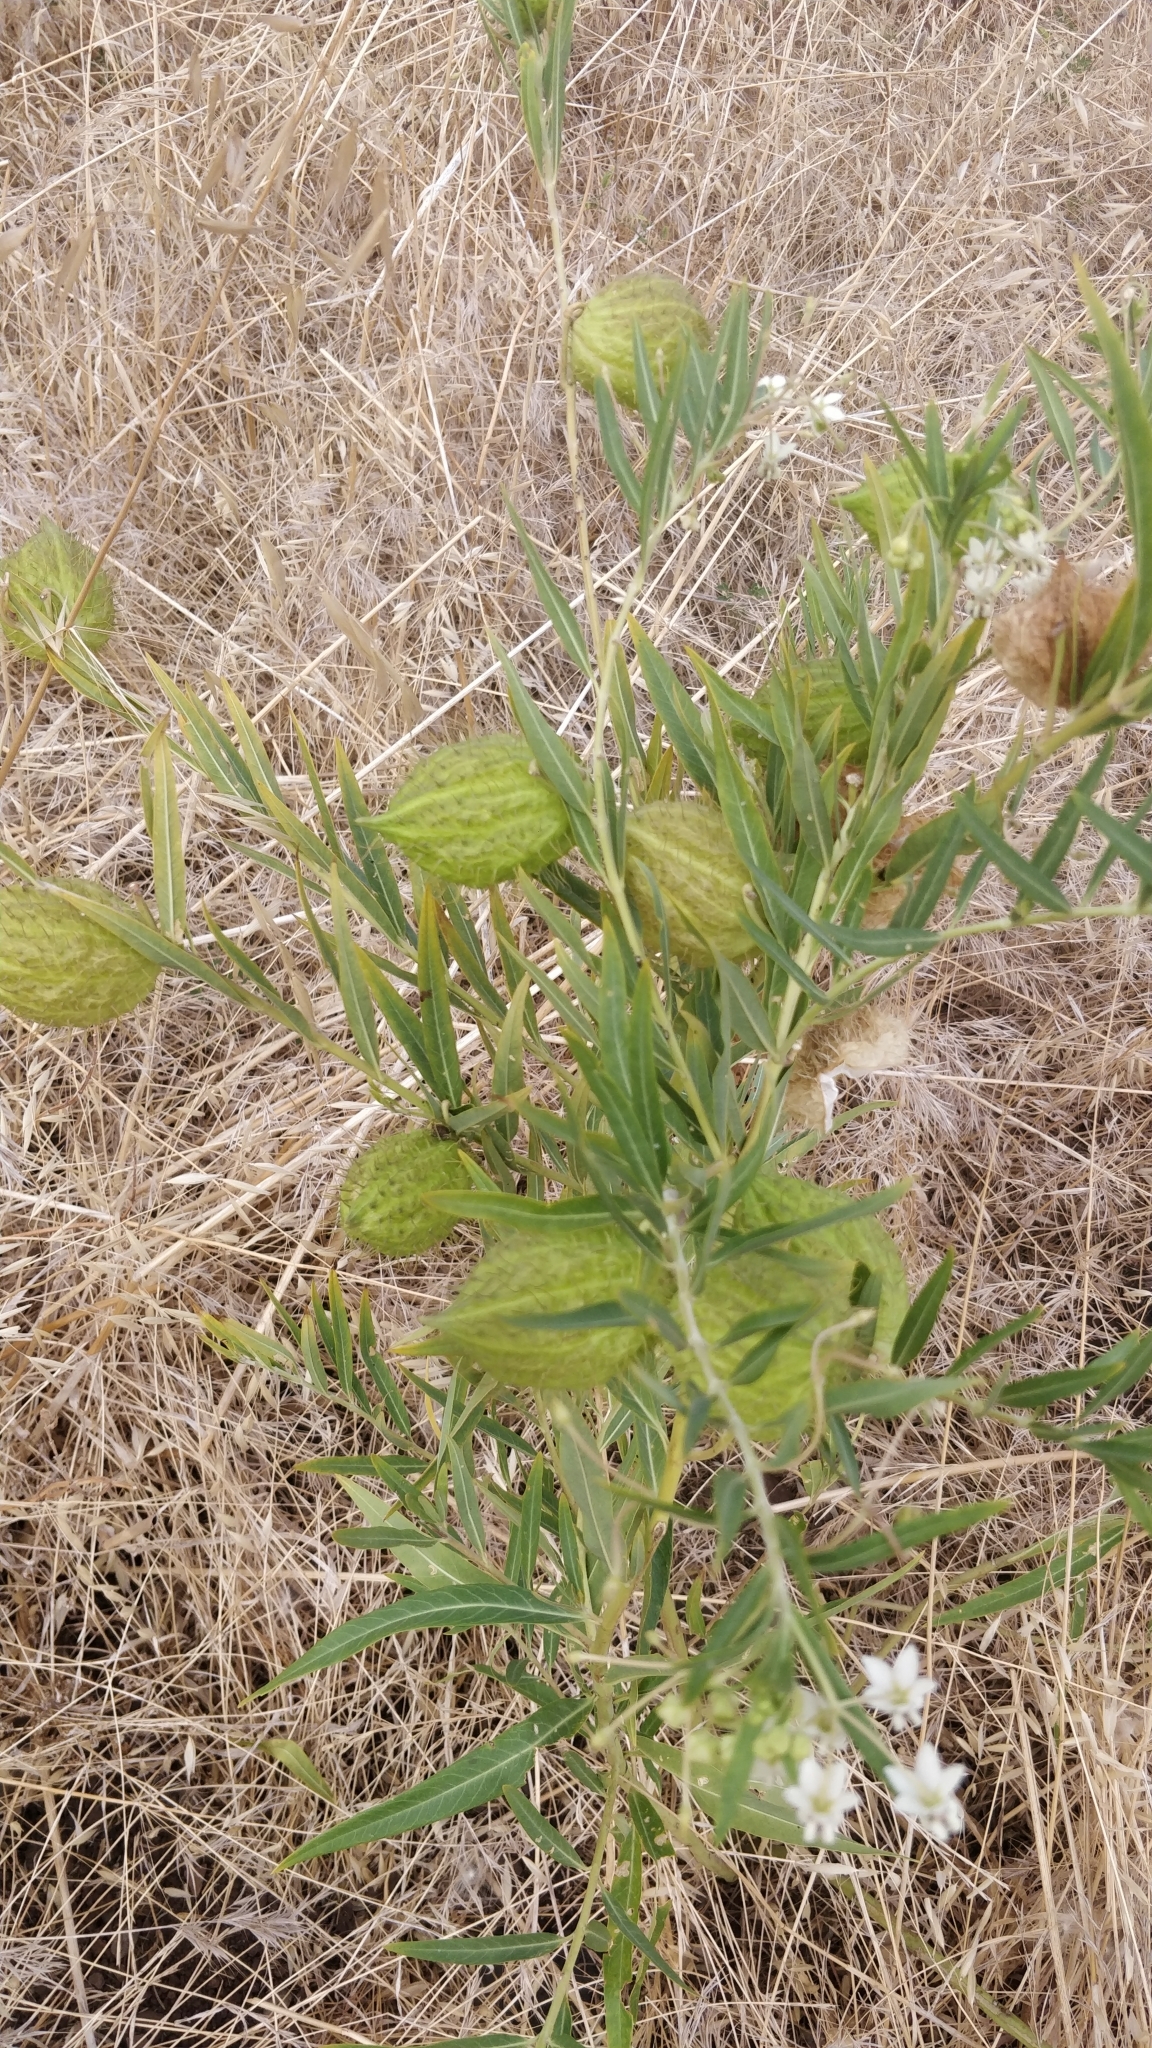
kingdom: Plantae
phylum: Tracheophyta
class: Magnoliopsida
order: Gentianales
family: Apocynaceae
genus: Gomphocarpus
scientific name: Gomphocarpus fruticosus
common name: Milkweed
